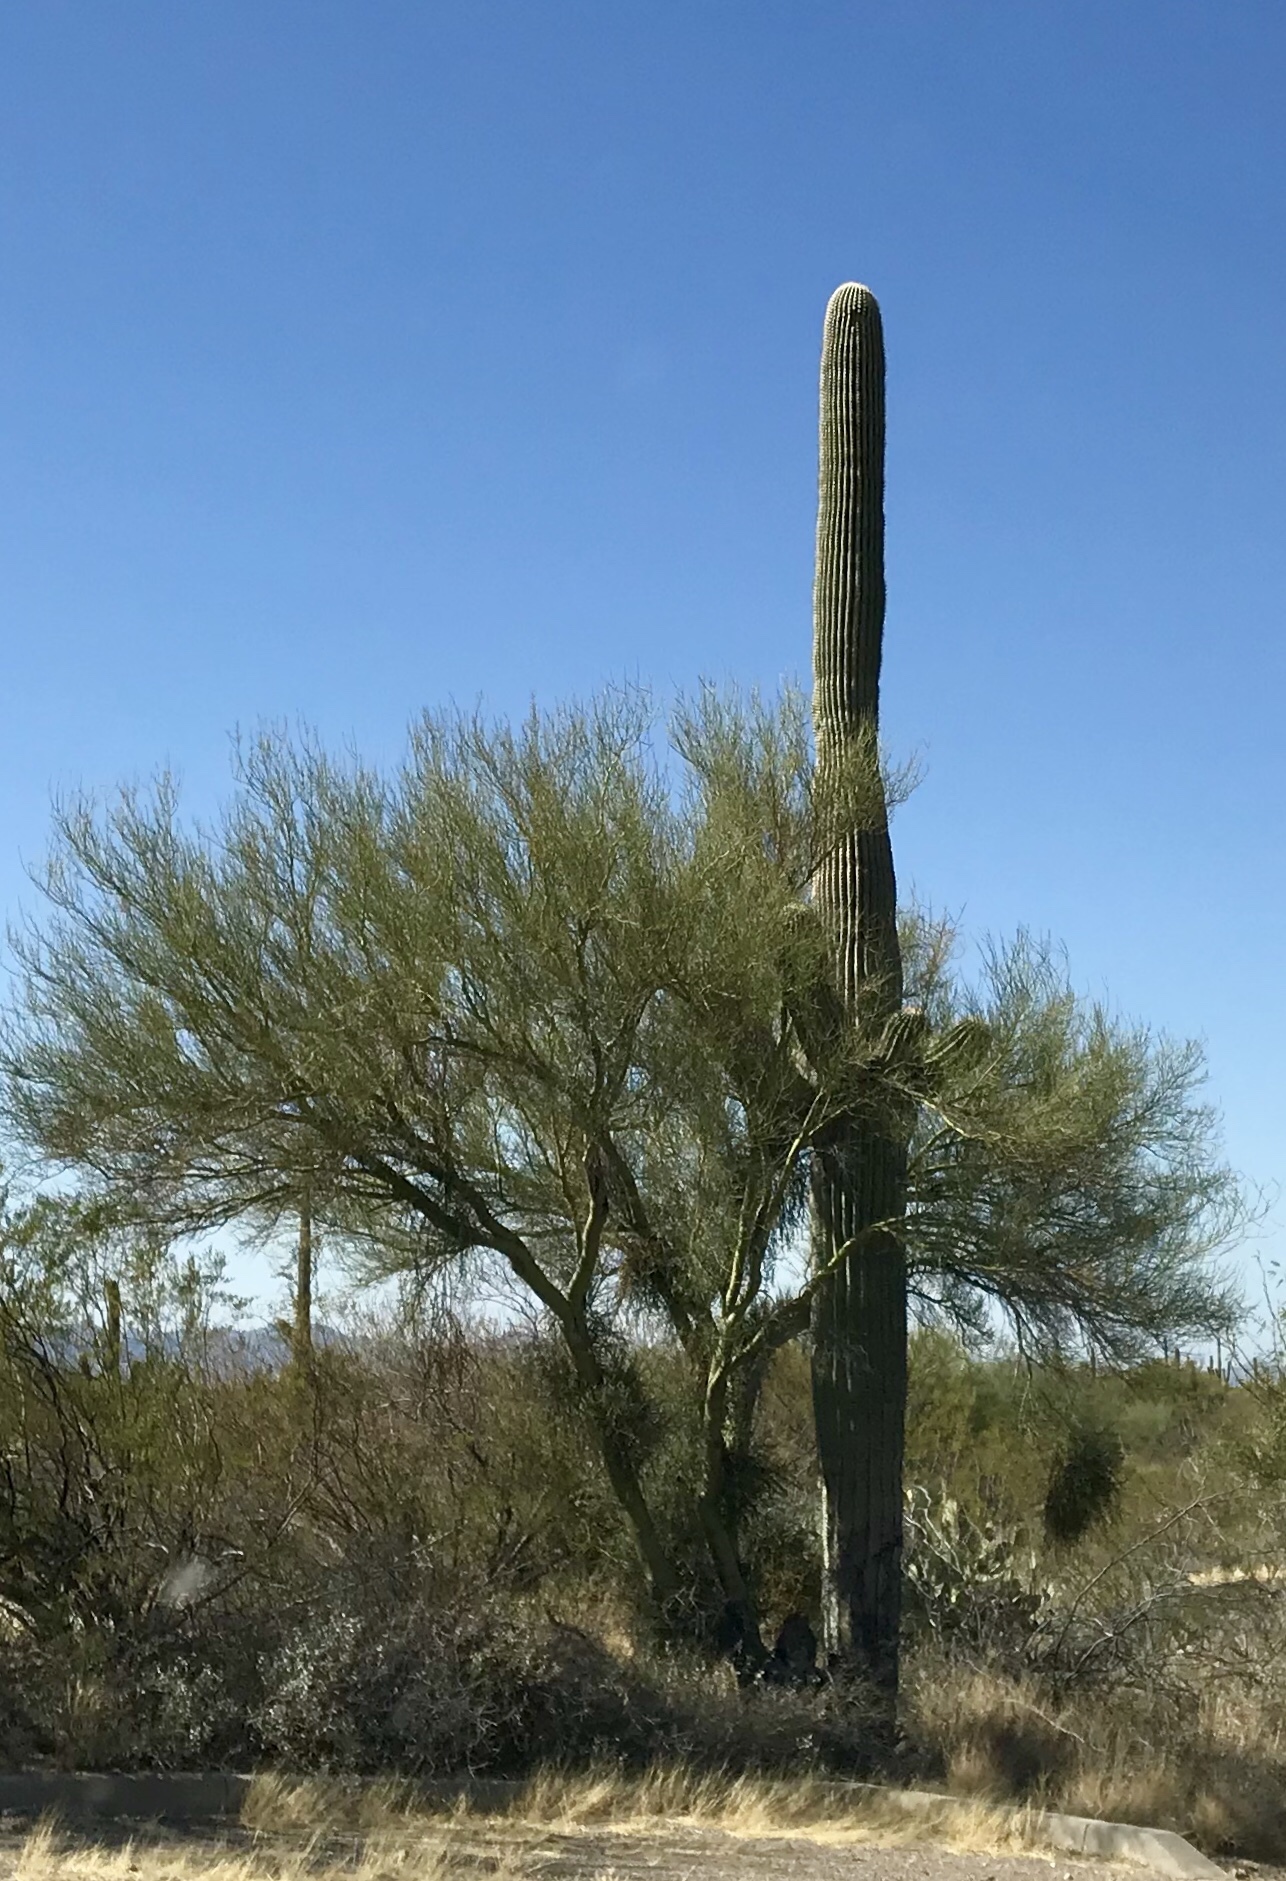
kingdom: Plantae
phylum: Tracheophyta
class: Magnoliopsida
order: Fabales
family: Fabaceae
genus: Parkinsonia
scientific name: Parkinsonia microphylla
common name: Yellow paloverde
